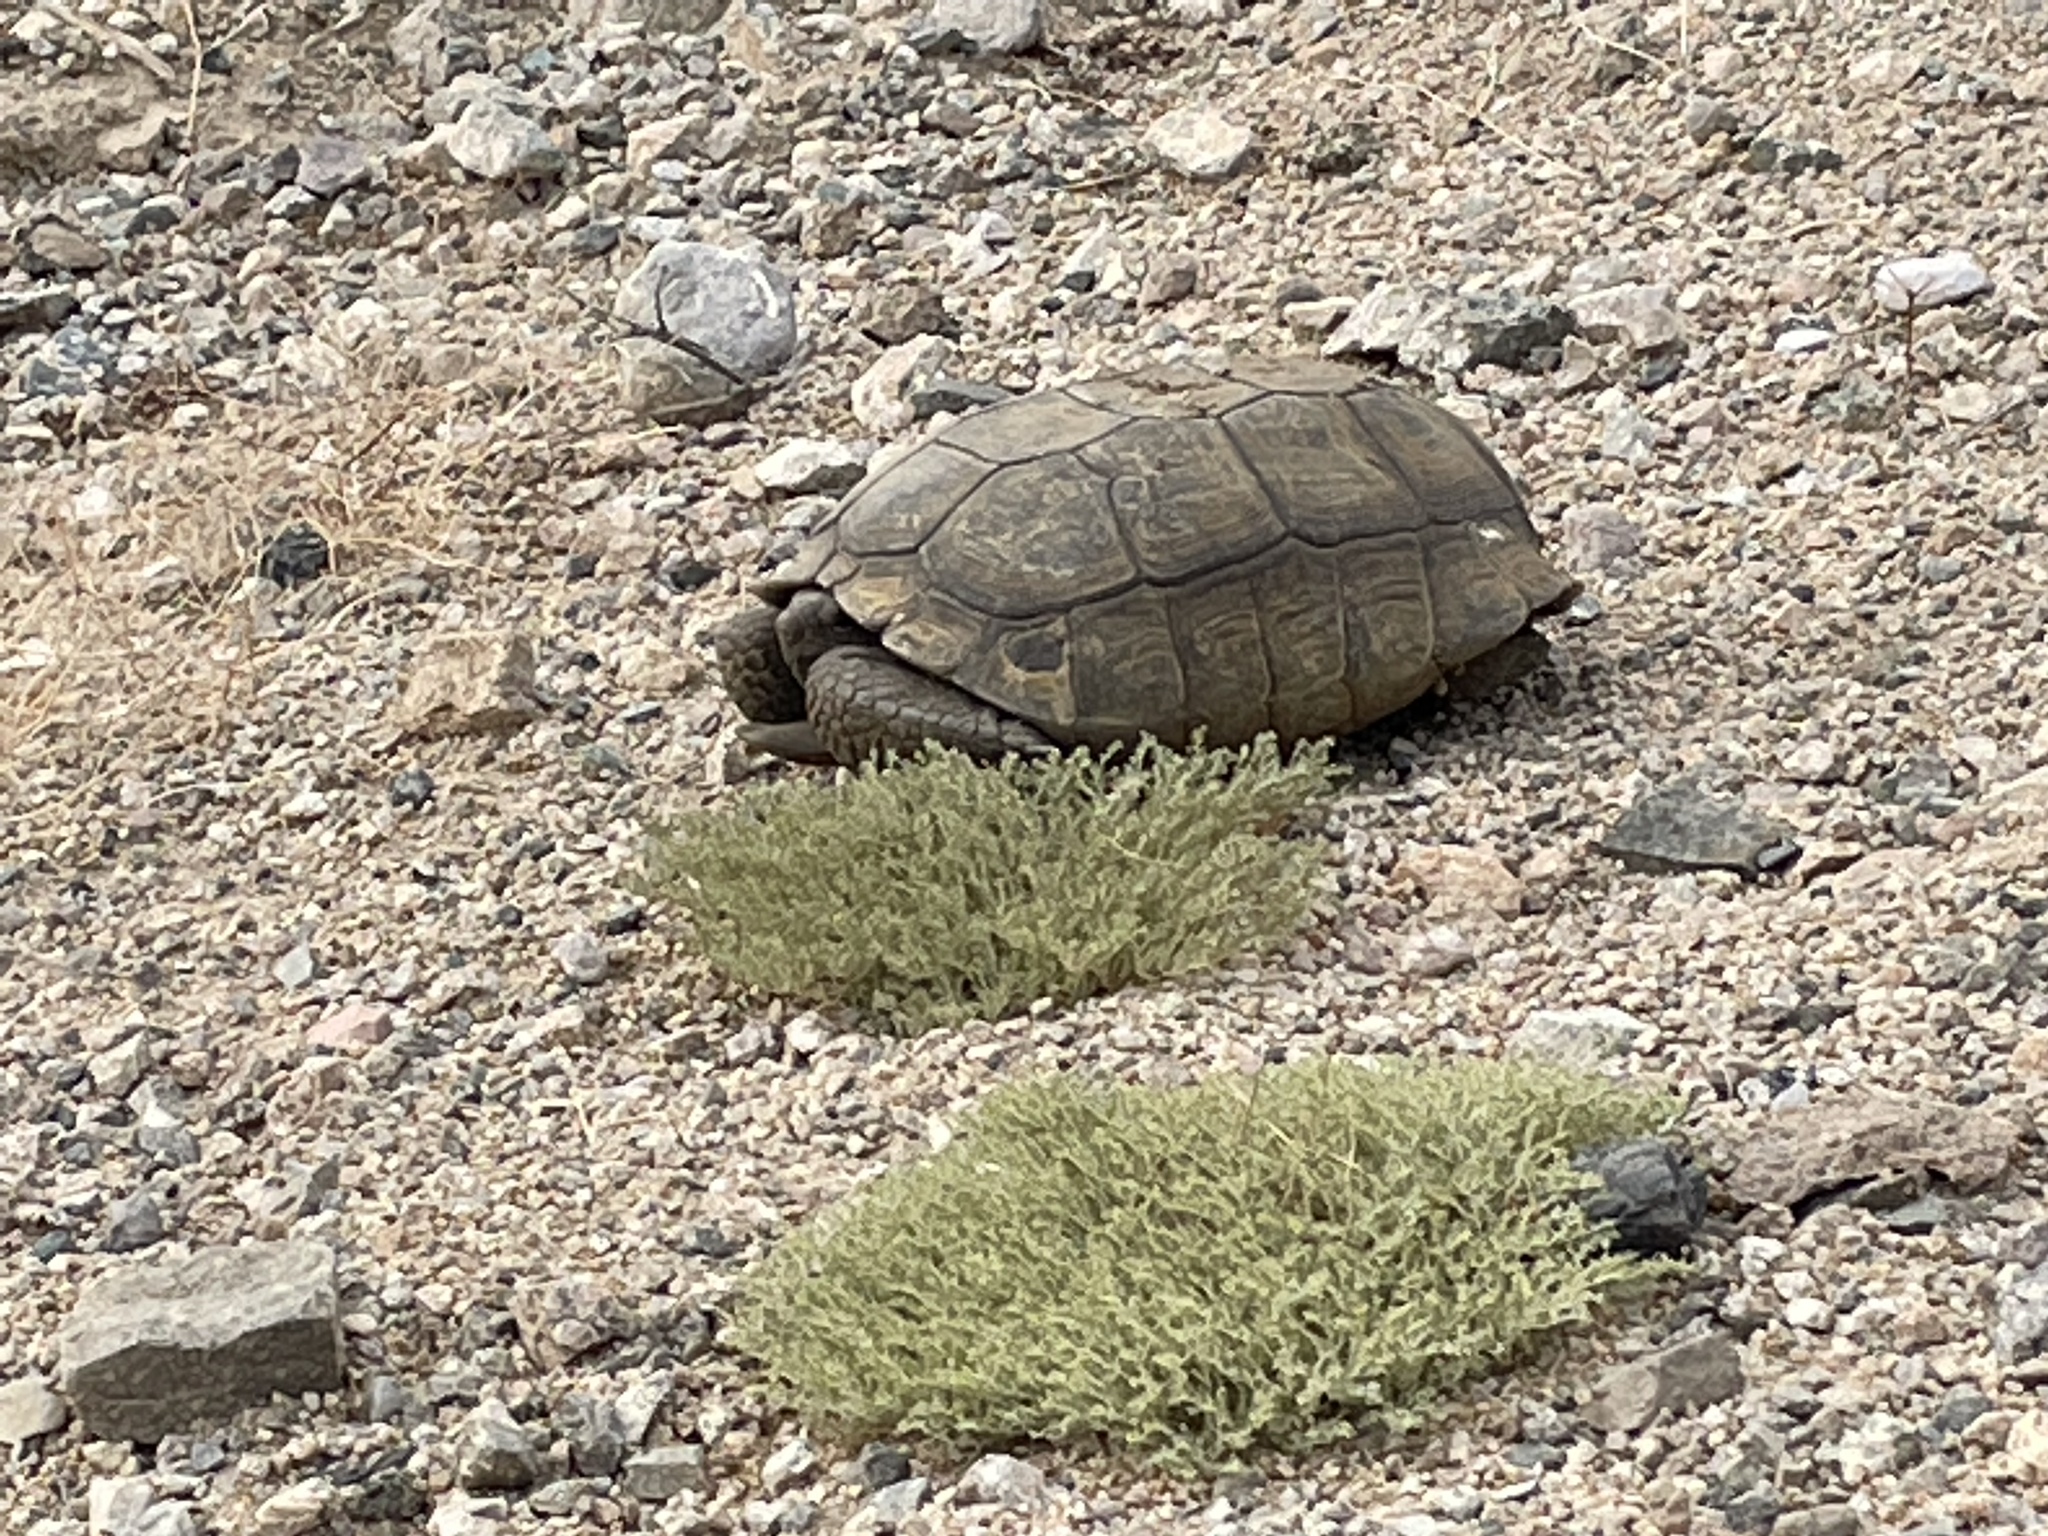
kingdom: Animalia
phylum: Chordata
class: Testudines
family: Testudinidae
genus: Gopherus
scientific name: Gopherus agassizii
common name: Mojave desert tortoise
